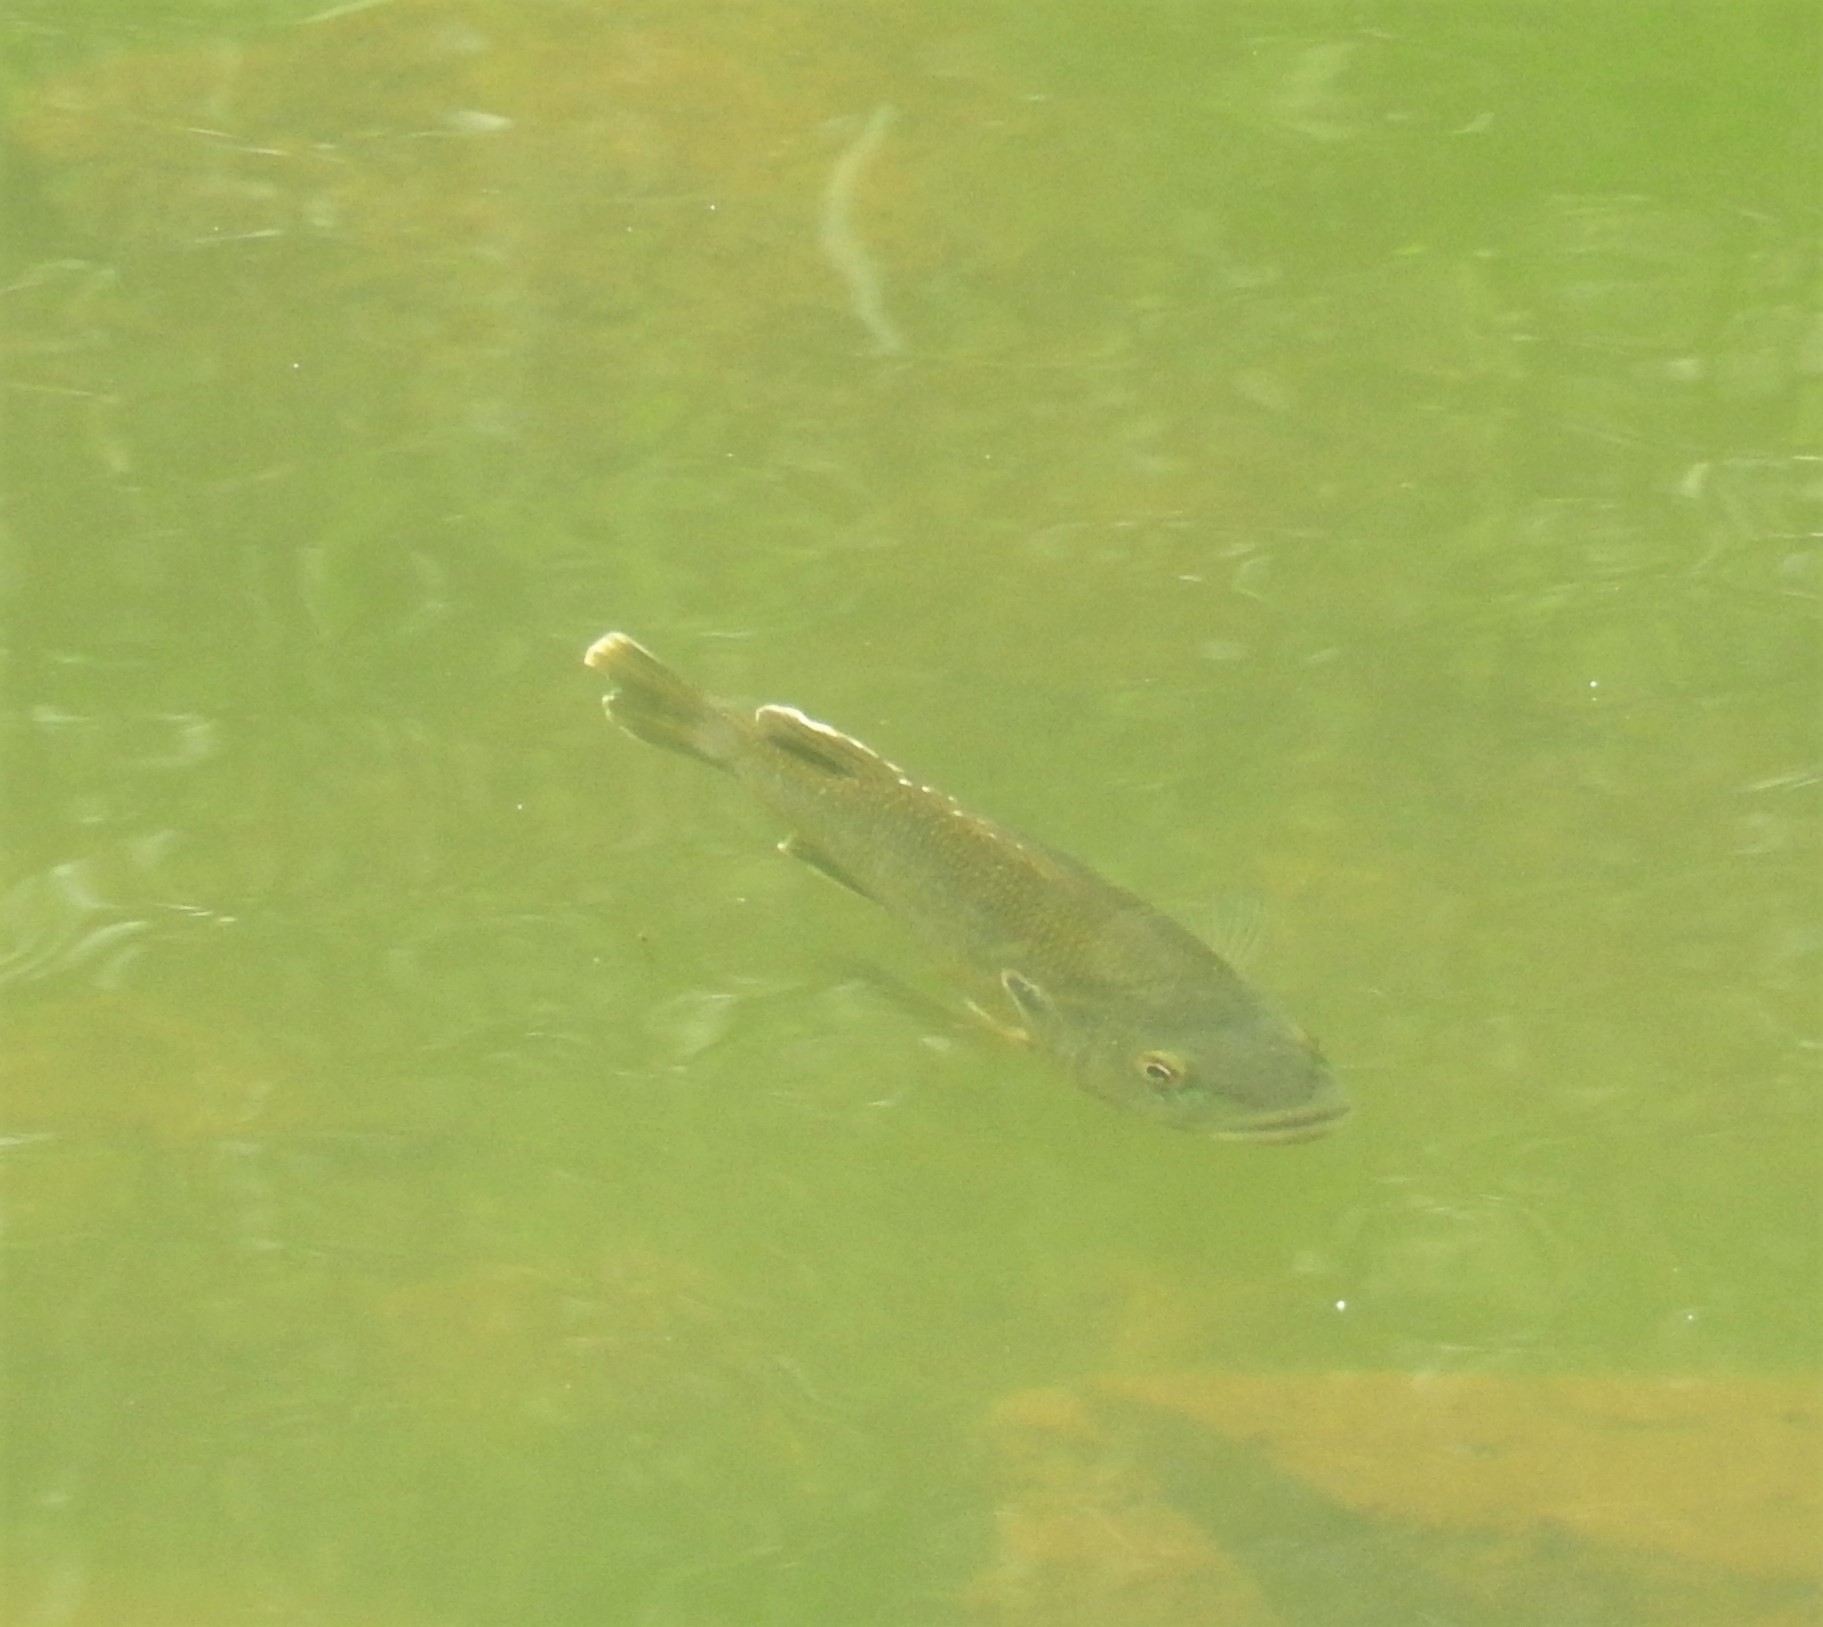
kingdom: Animalia
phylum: Chordata
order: Perciformes
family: Centrarchidae
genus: Lepomis
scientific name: Lepomis cyanellus
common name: Green sunfish
